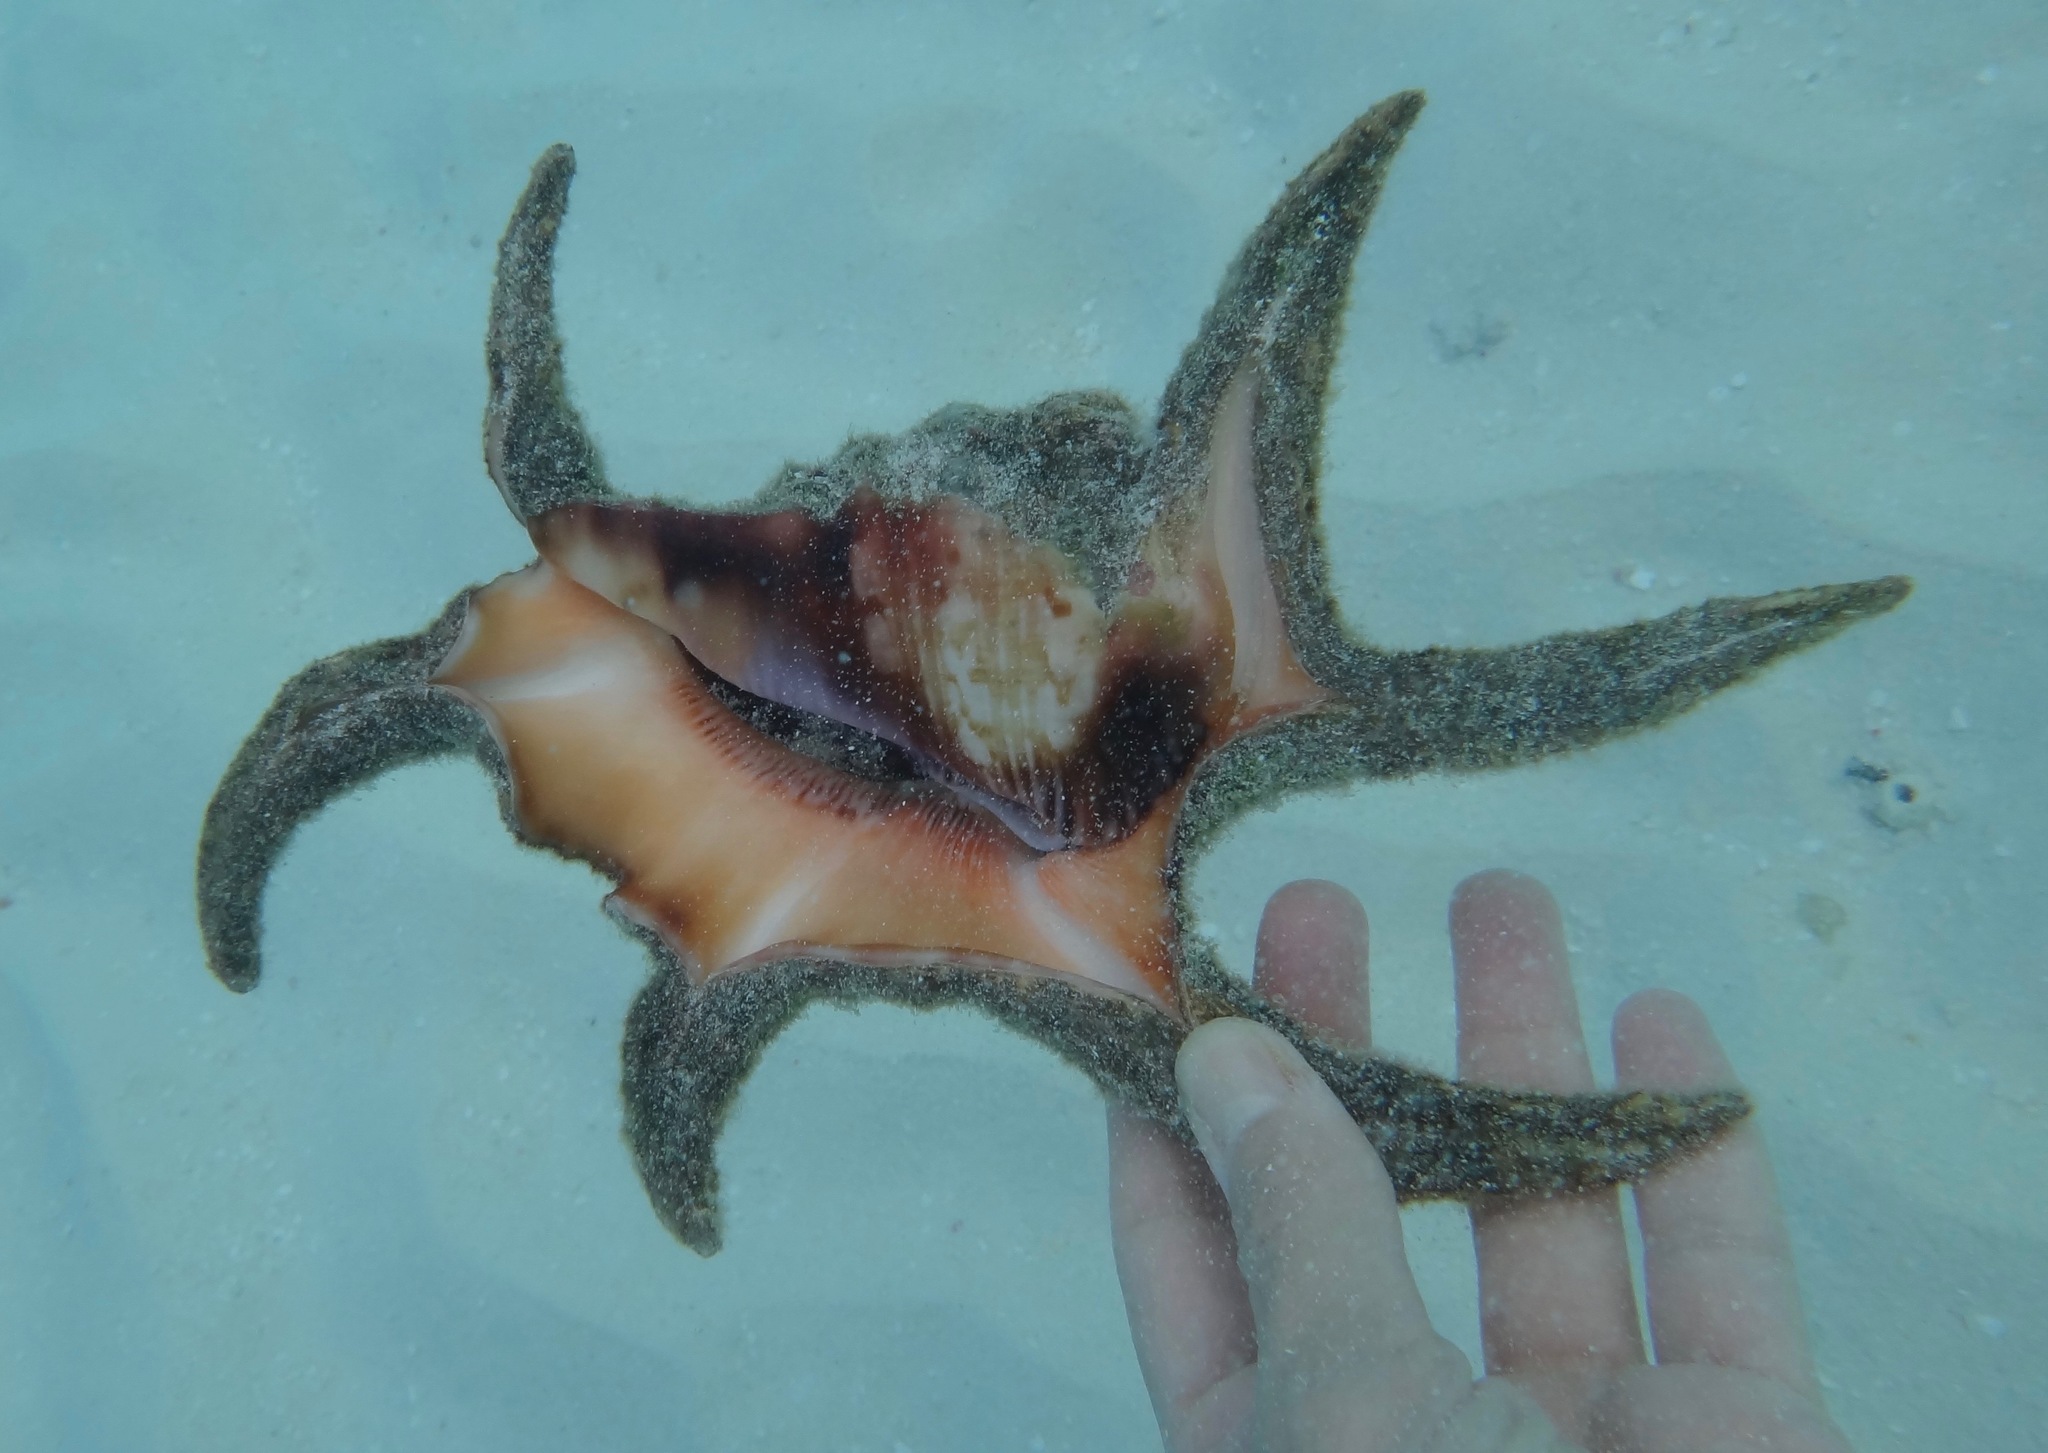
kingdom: Animalia
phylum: Mollusca
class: Gastropoda
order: Littorinimorpha
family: Strombidae
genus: Harpago
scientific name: Harpago chiragra
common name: Chiragra spider conch
